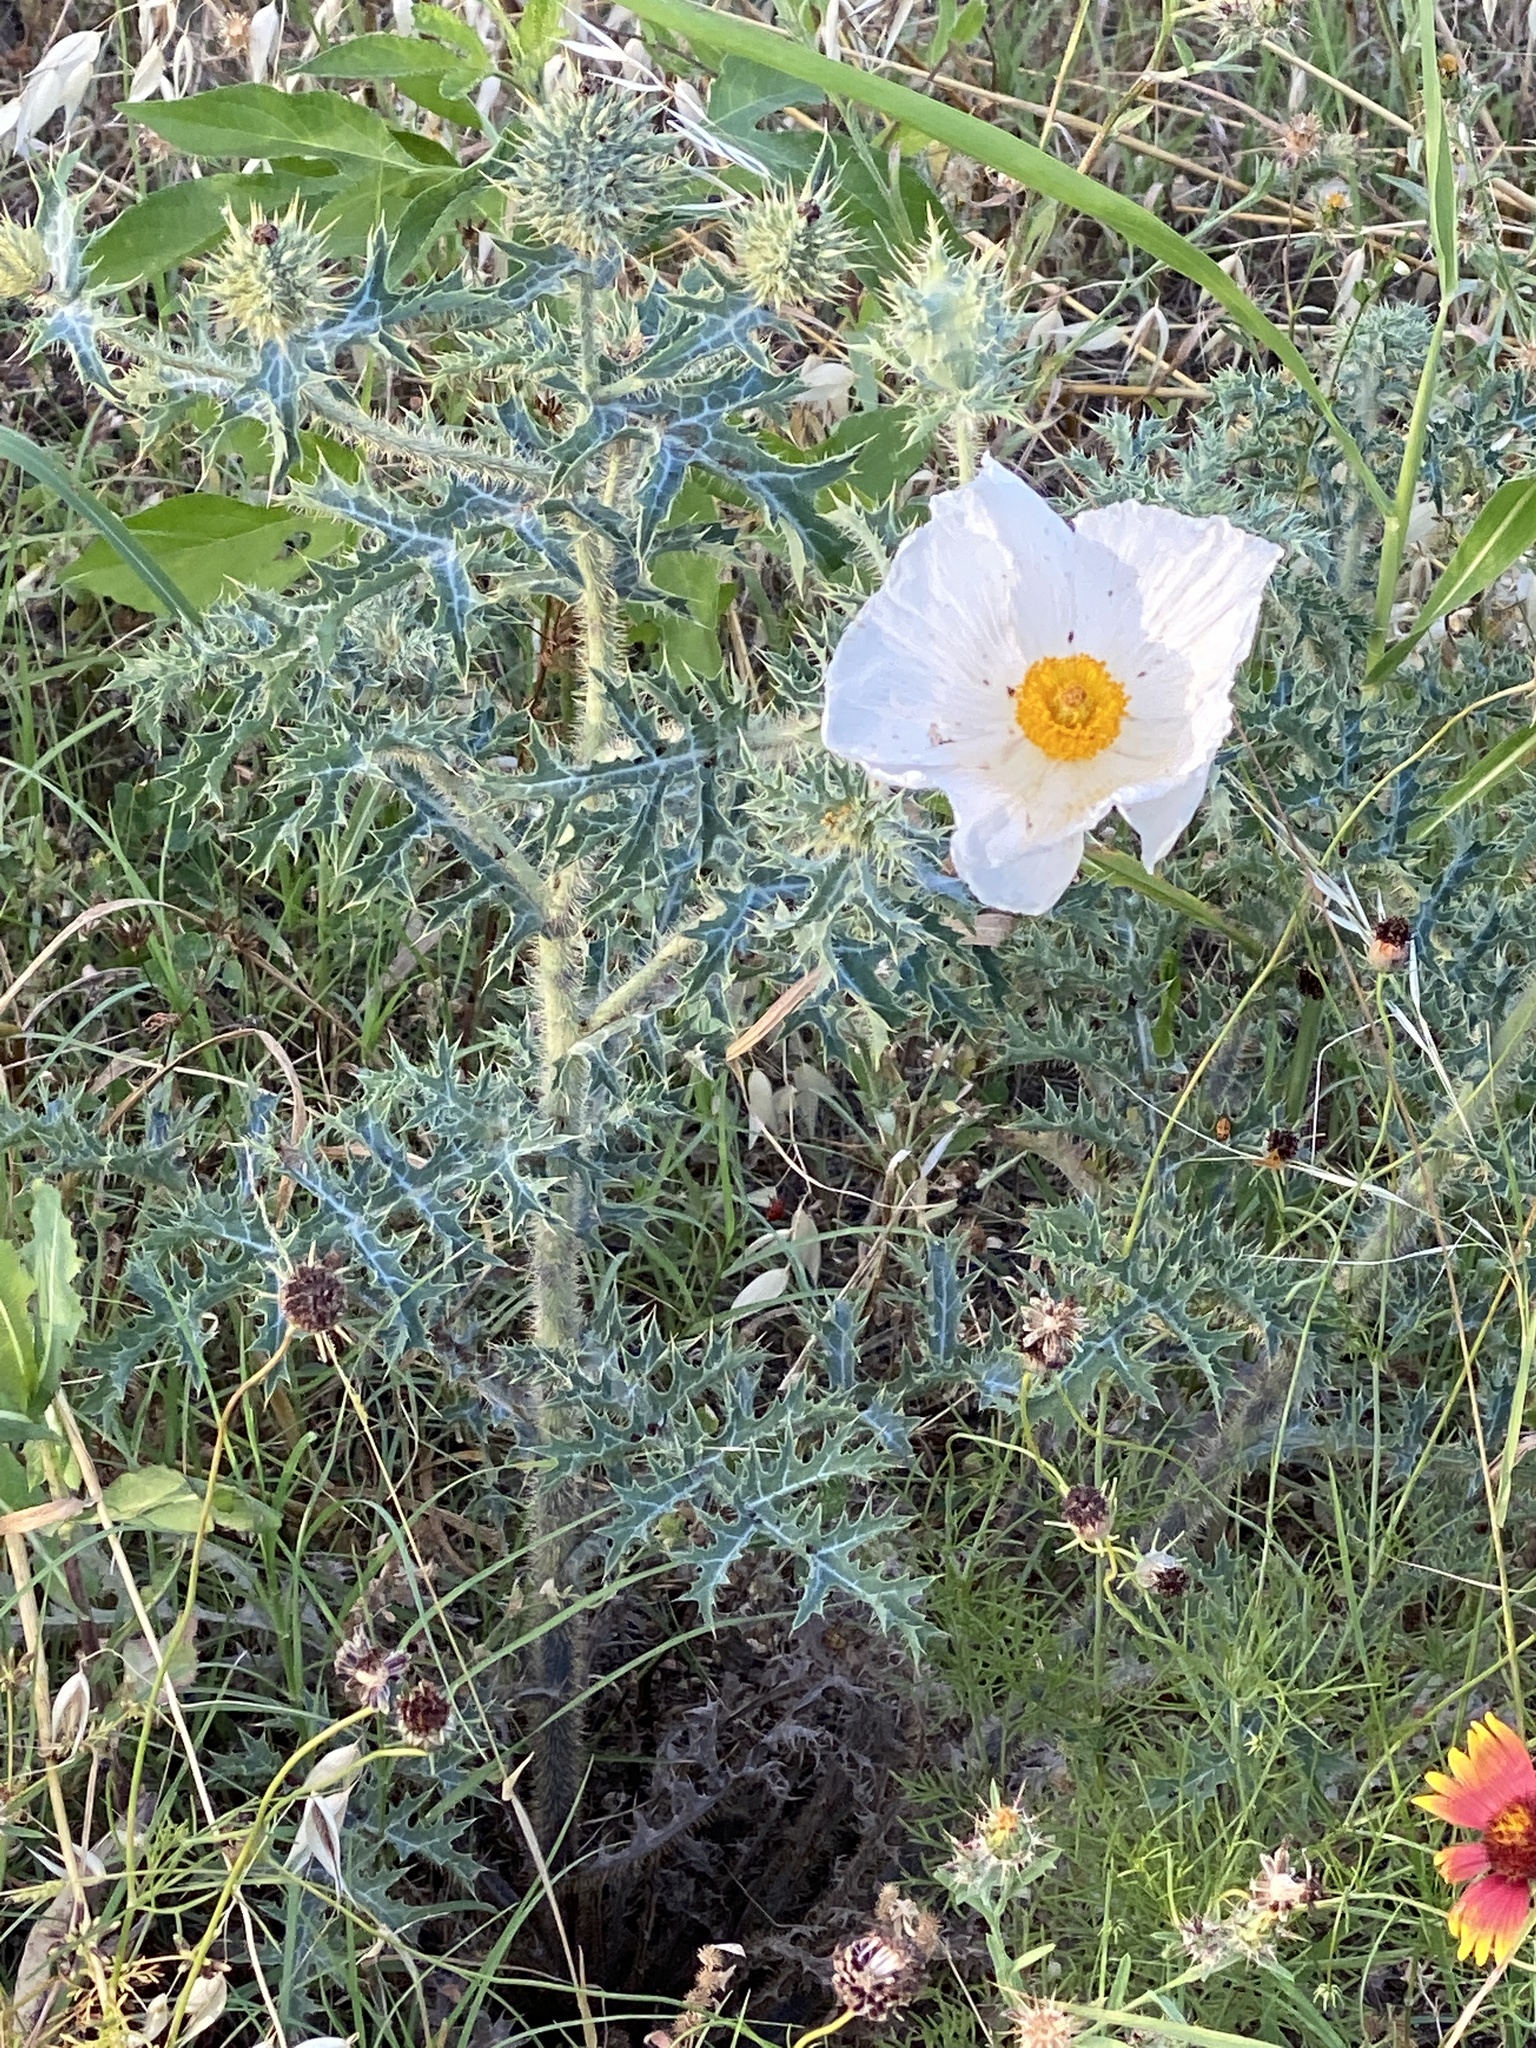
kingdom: Plantae
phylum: Tracheophyta
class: Magnoliopsida
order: Ranunculales
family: Papaveraceae
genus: Argemone
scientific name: Argemone albiflora
